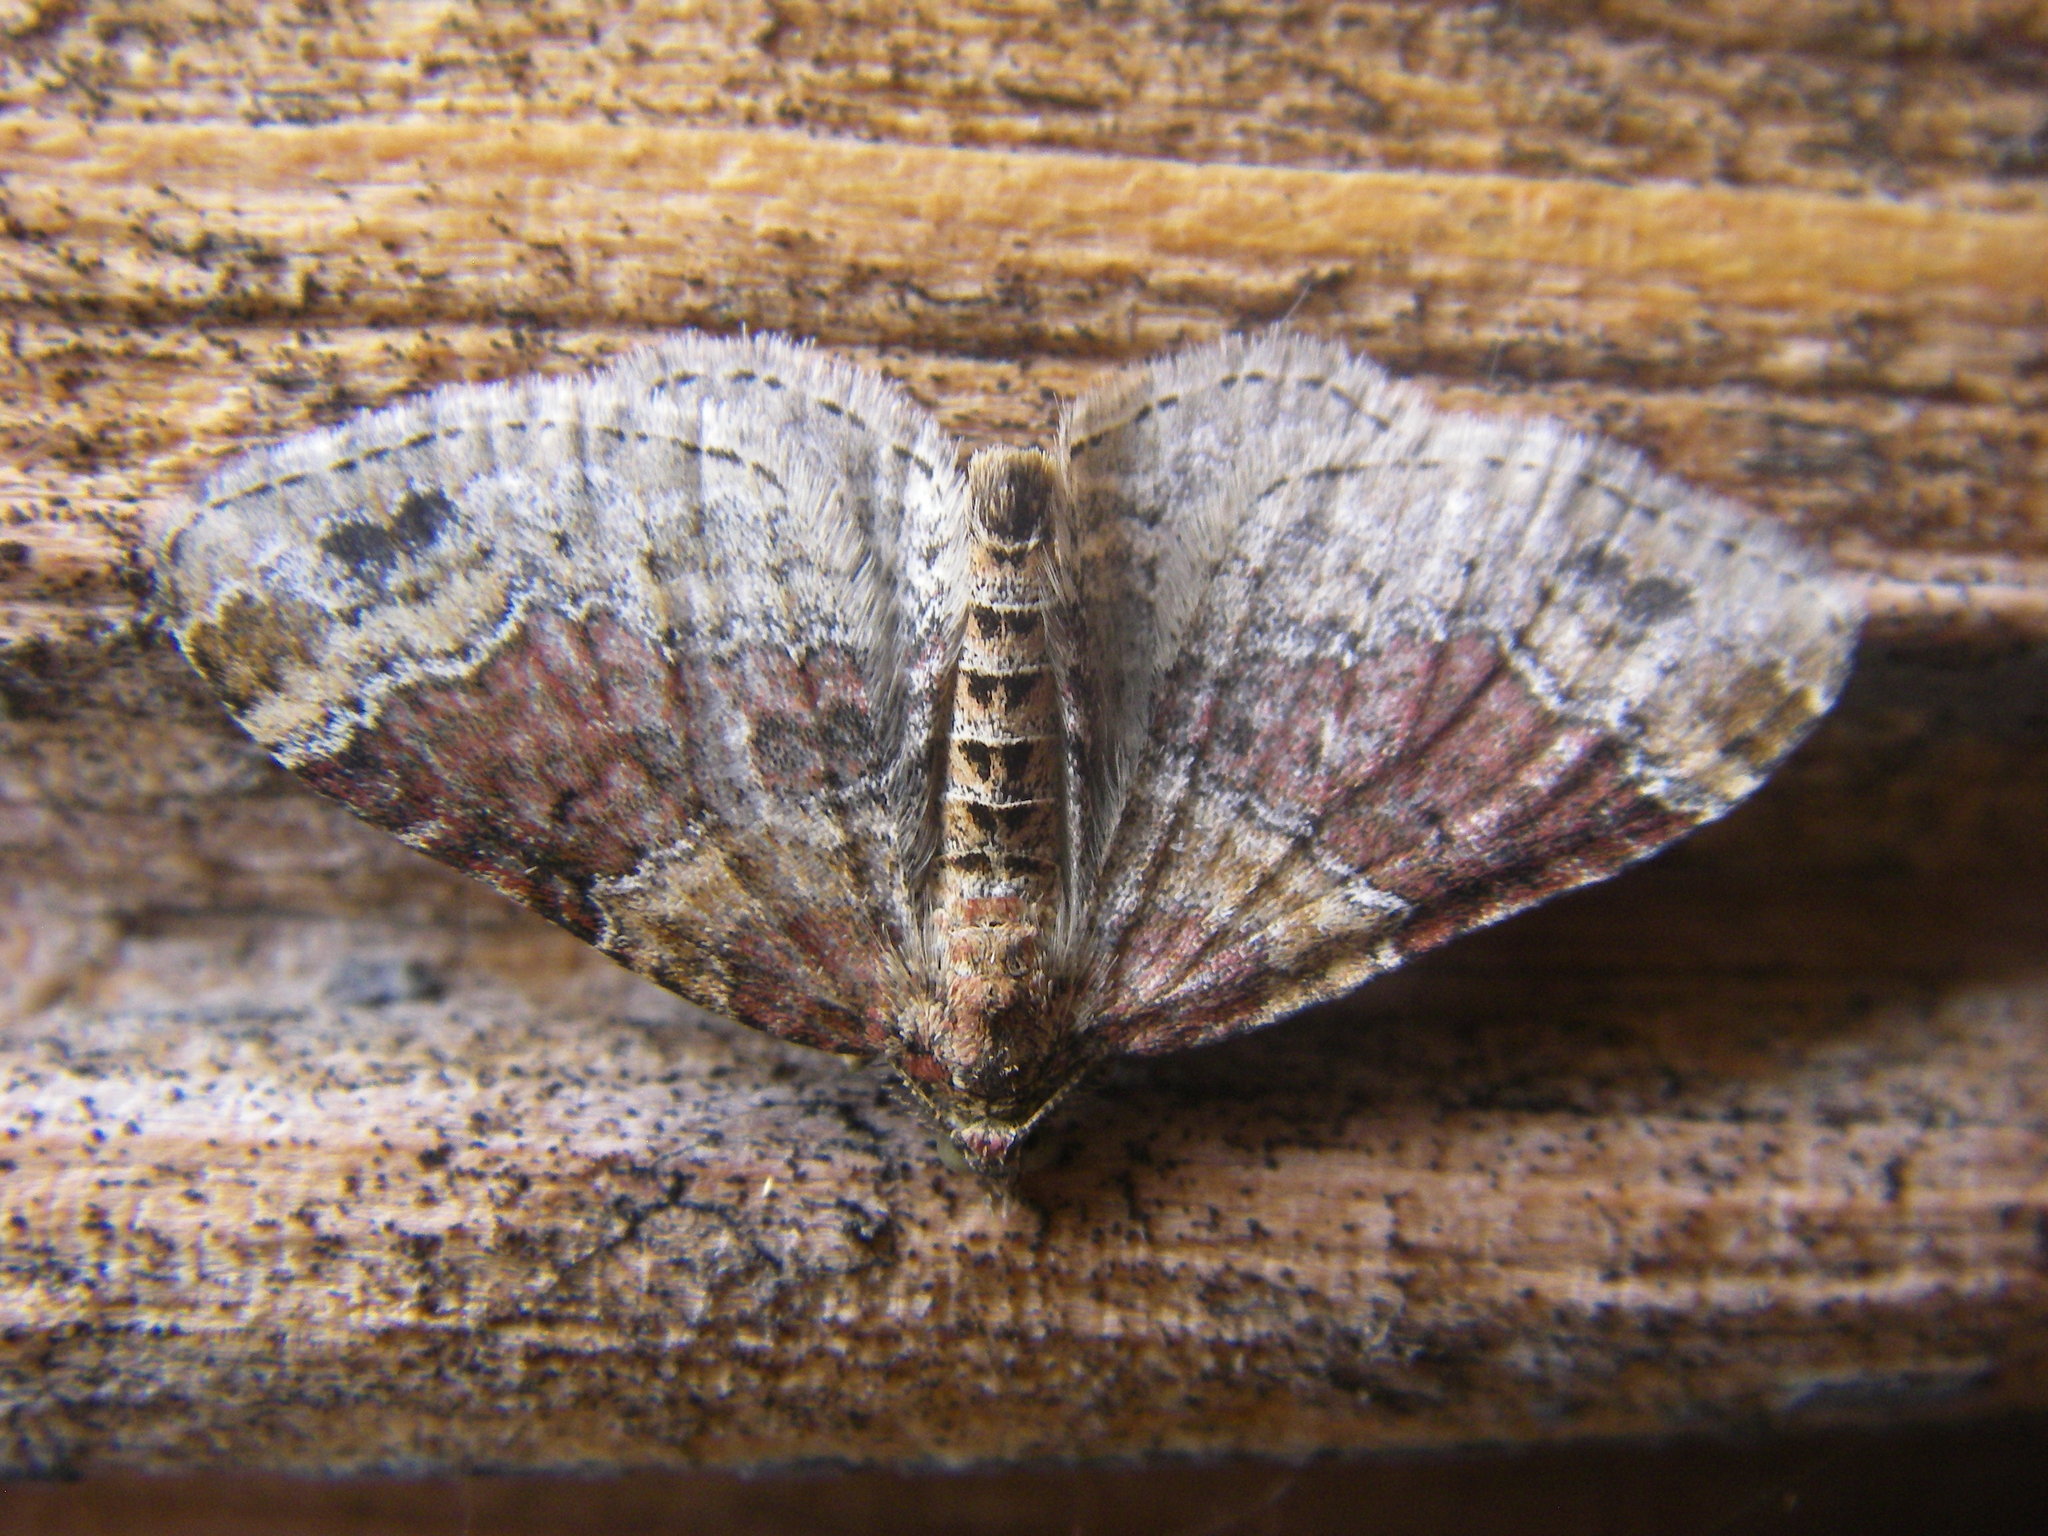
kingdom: Animalia
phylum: Arthropoda
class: Insecta
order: Lepidoptera
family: Geometridae
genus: Xanthorhoe
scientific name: Xanthorhoe spadicearia
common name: Red twin-spot carpet
